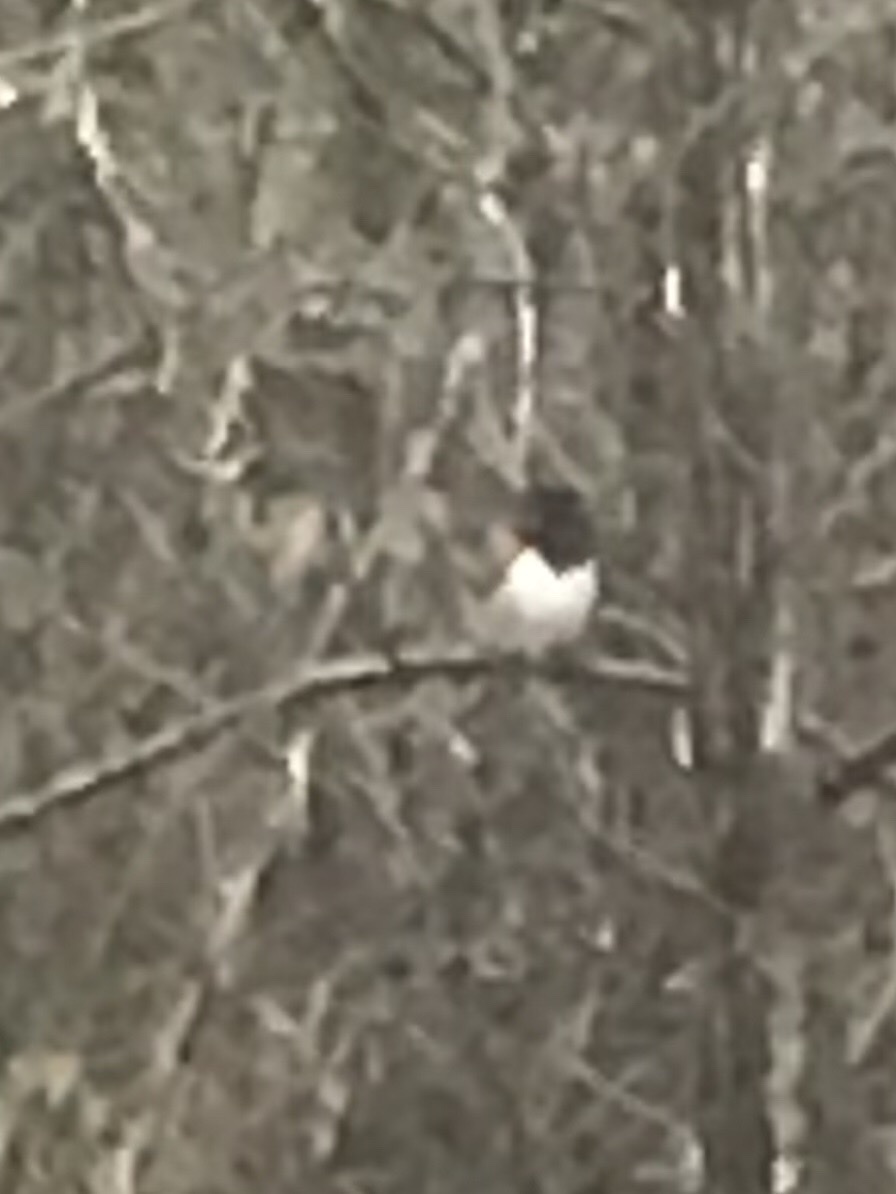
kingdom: Animalia
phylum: Chordata
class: Aves
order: Passeriformes
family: Passerellidae
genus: Pipilo
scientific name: Pipilo erythrophthalmus
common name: Eastern towhee
